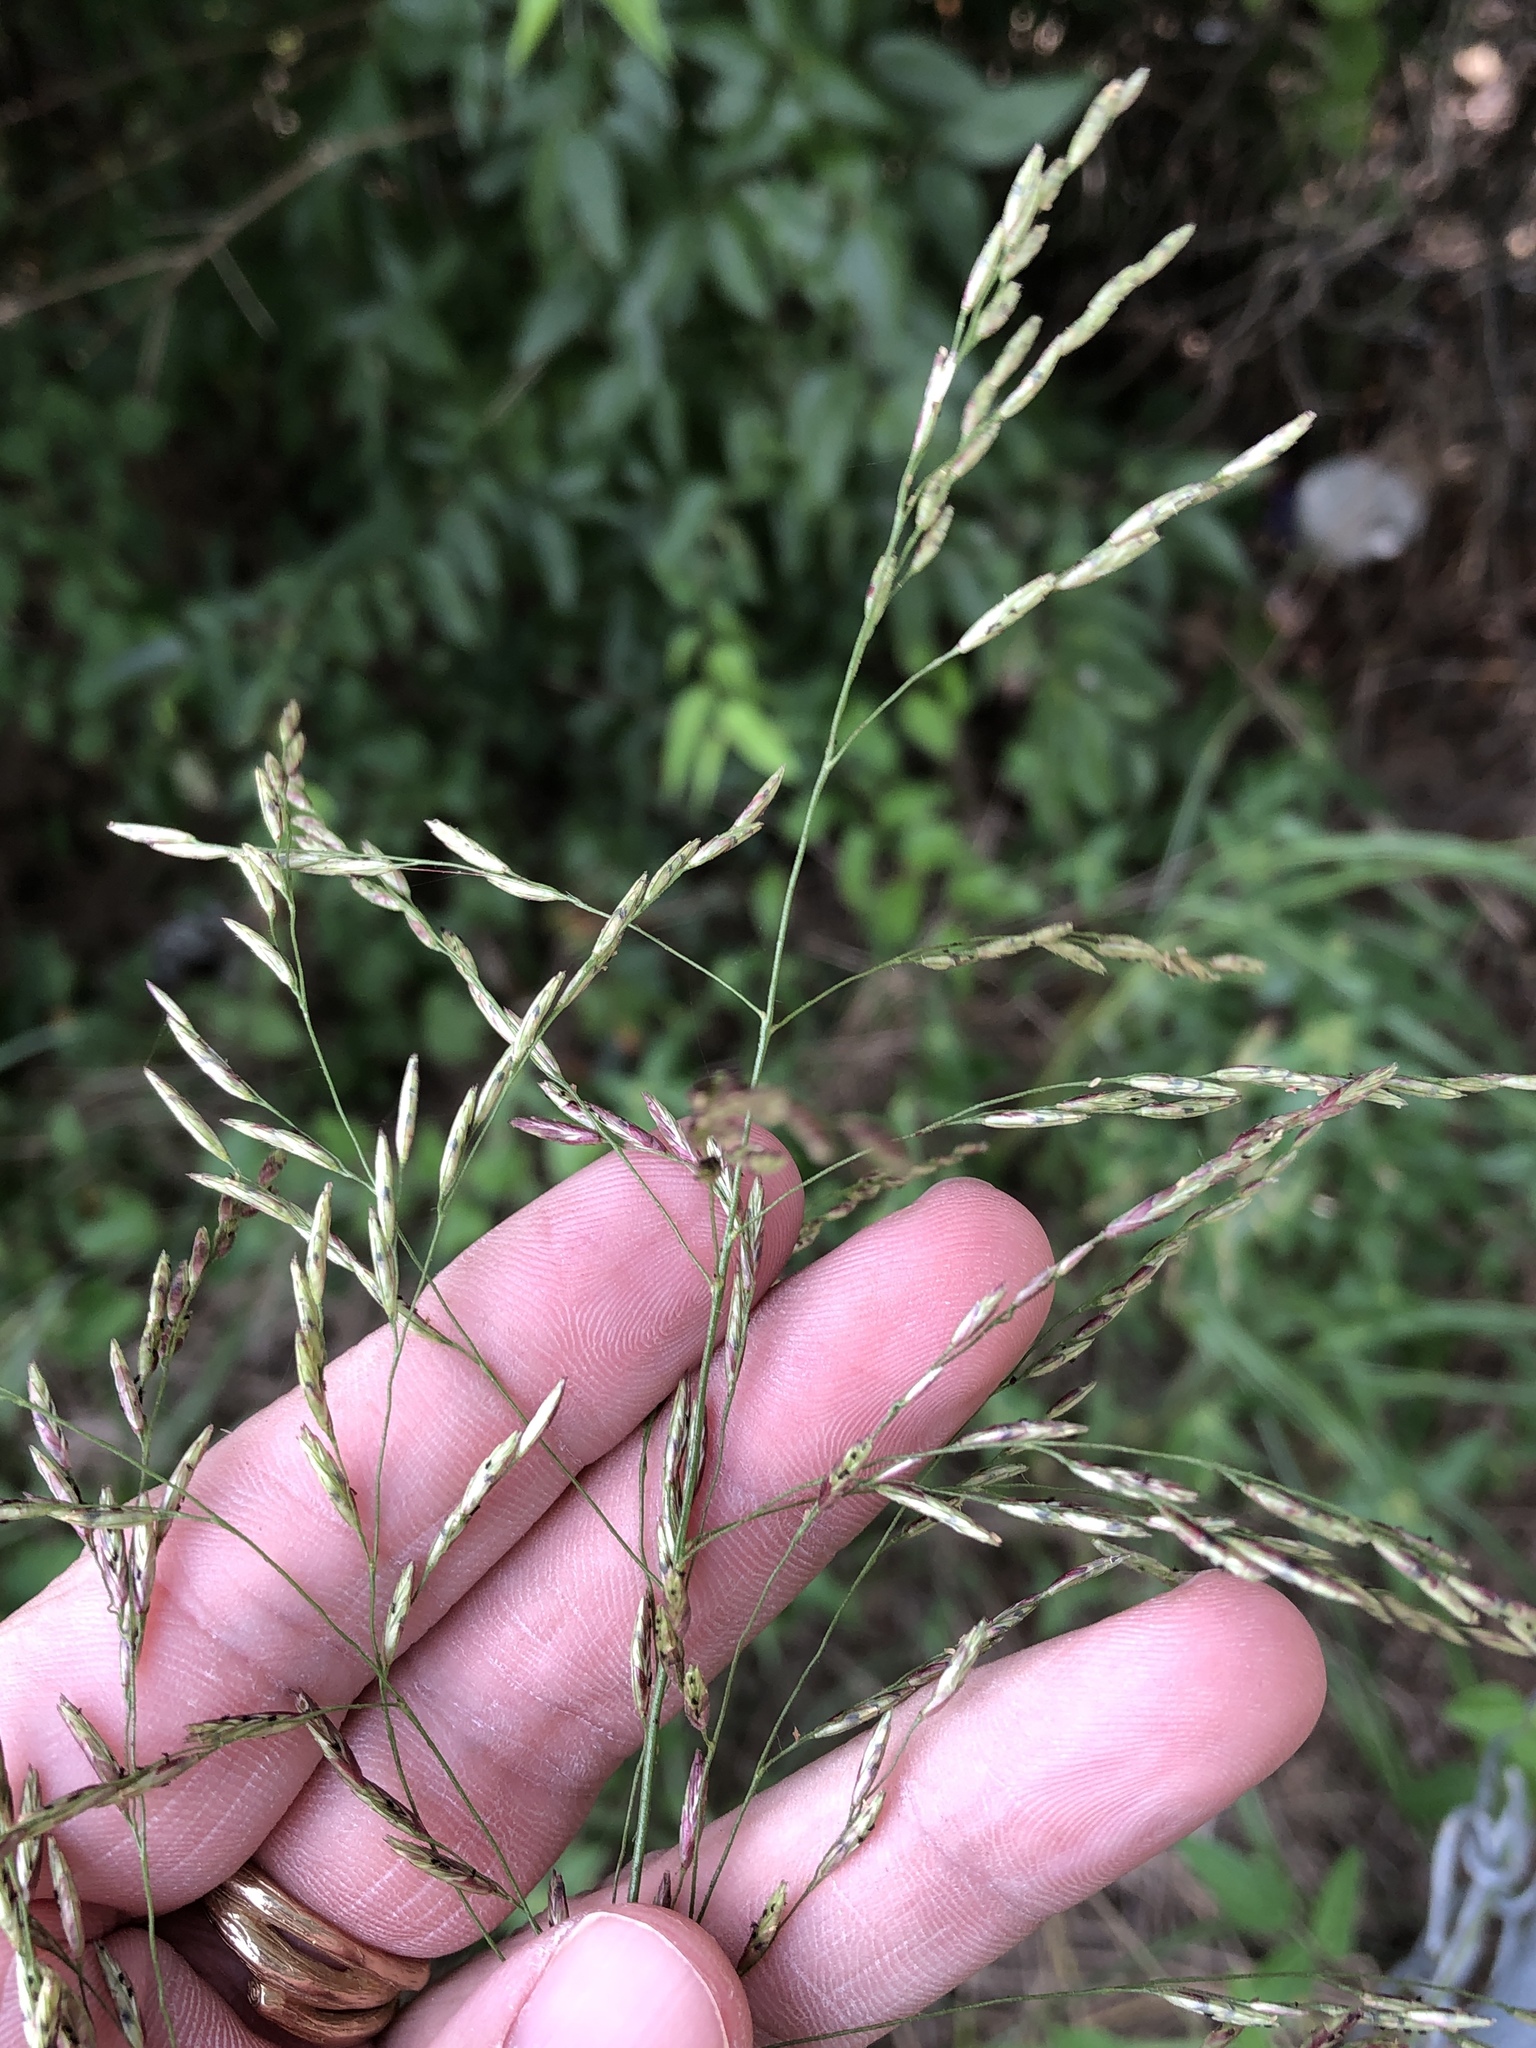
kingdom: Plantae
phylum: Tracheophyta
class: Liliopsida
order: Poales
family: Poaceae
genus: Tridens
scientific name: Tridens chapmanii
